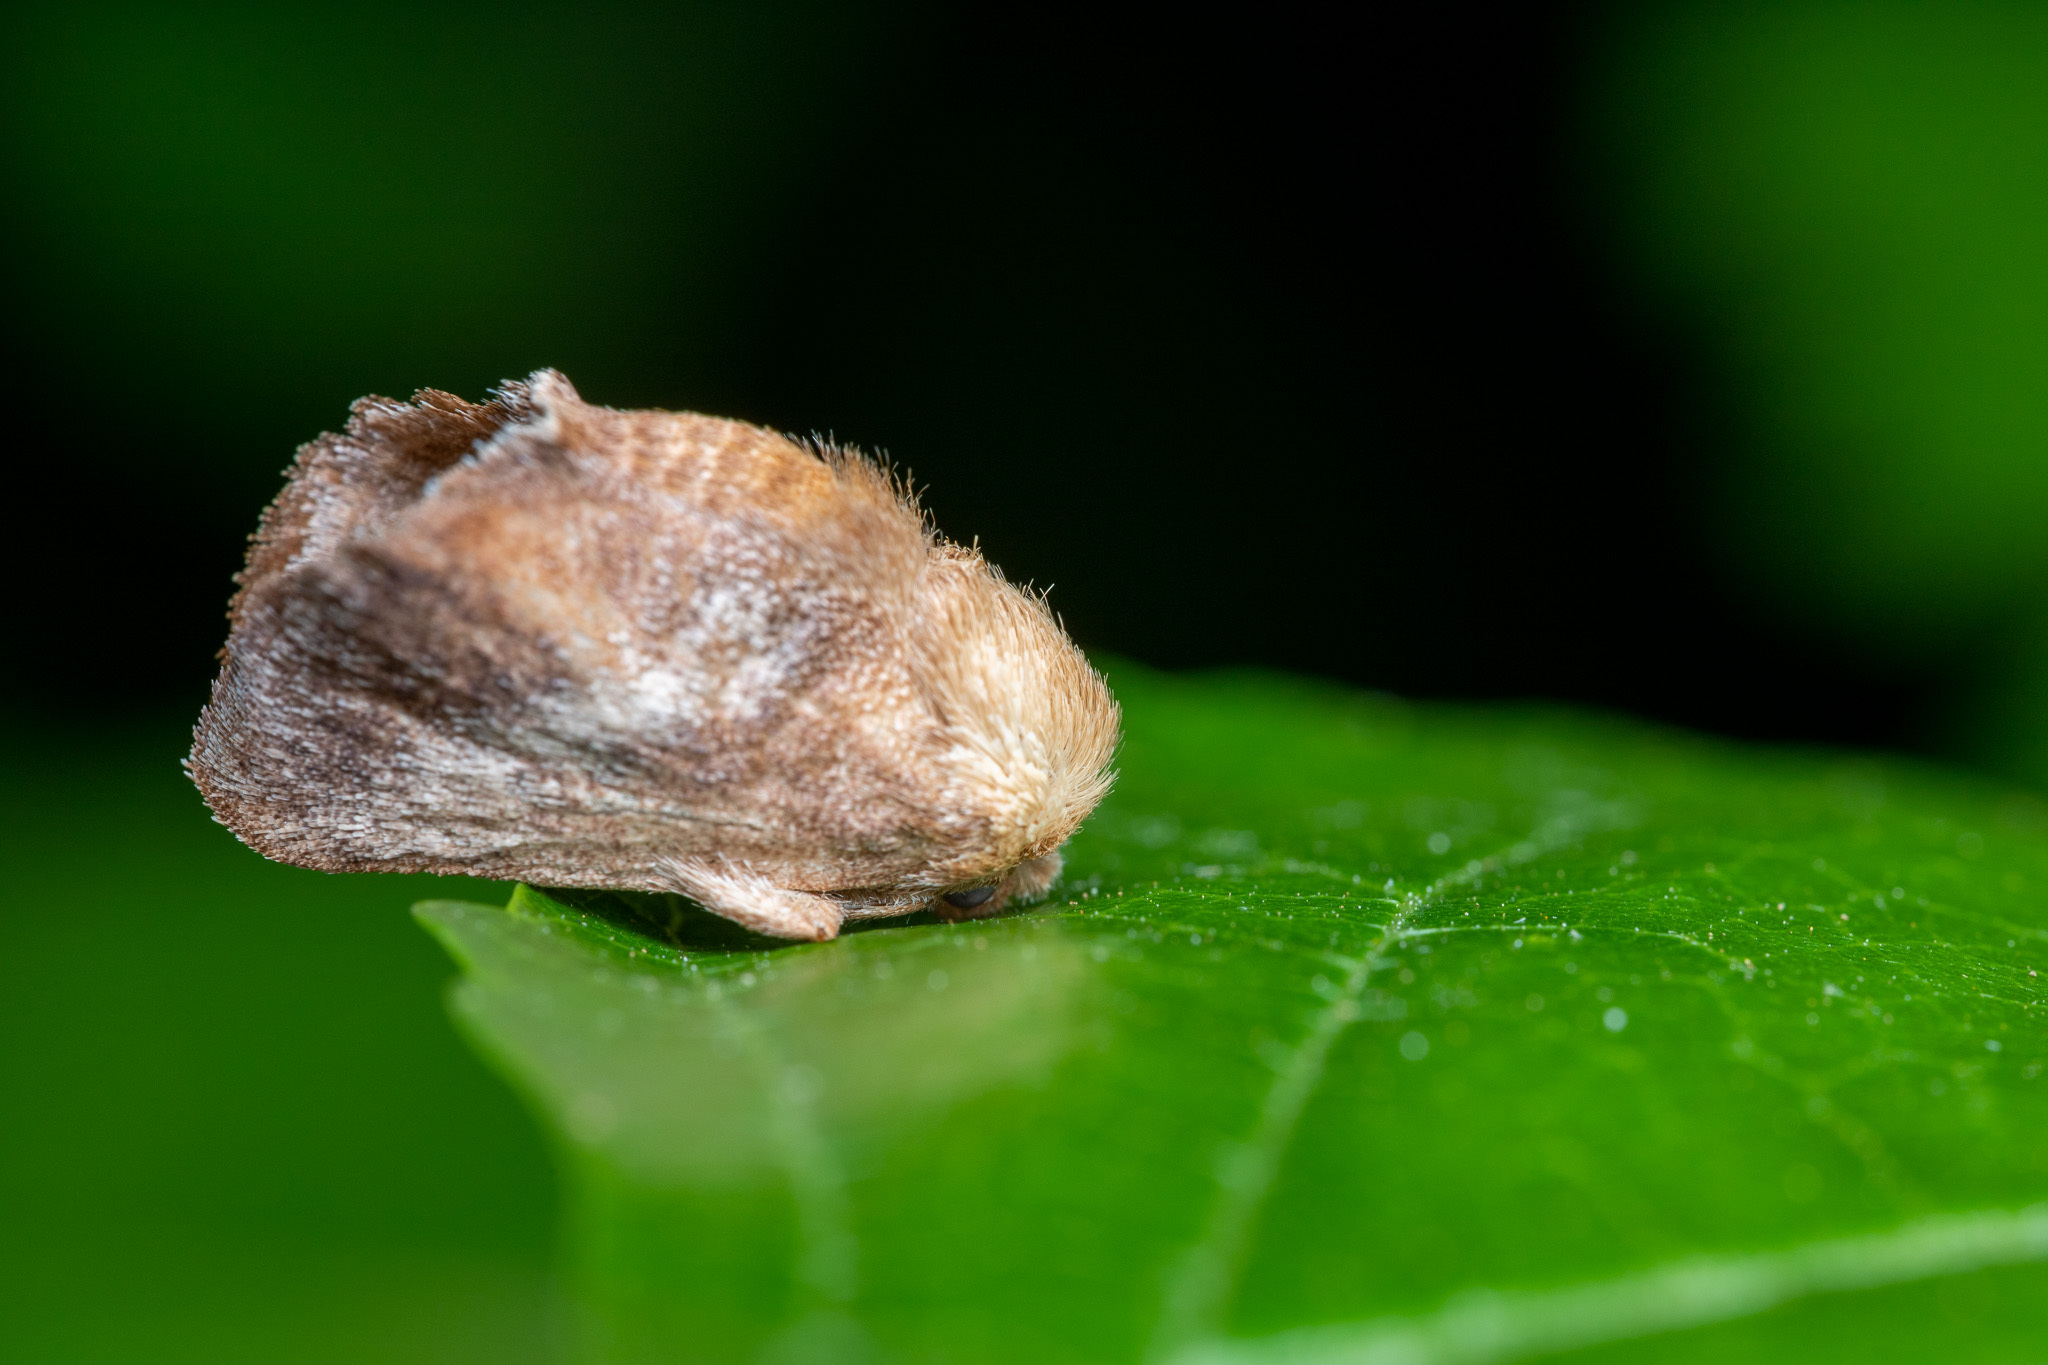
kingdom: Animalia
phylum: Arthropoda
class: Insecta
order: Lepidoptera
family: Limacodidae
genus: Isa
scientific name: Isa textula
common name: Crowned slug moth
